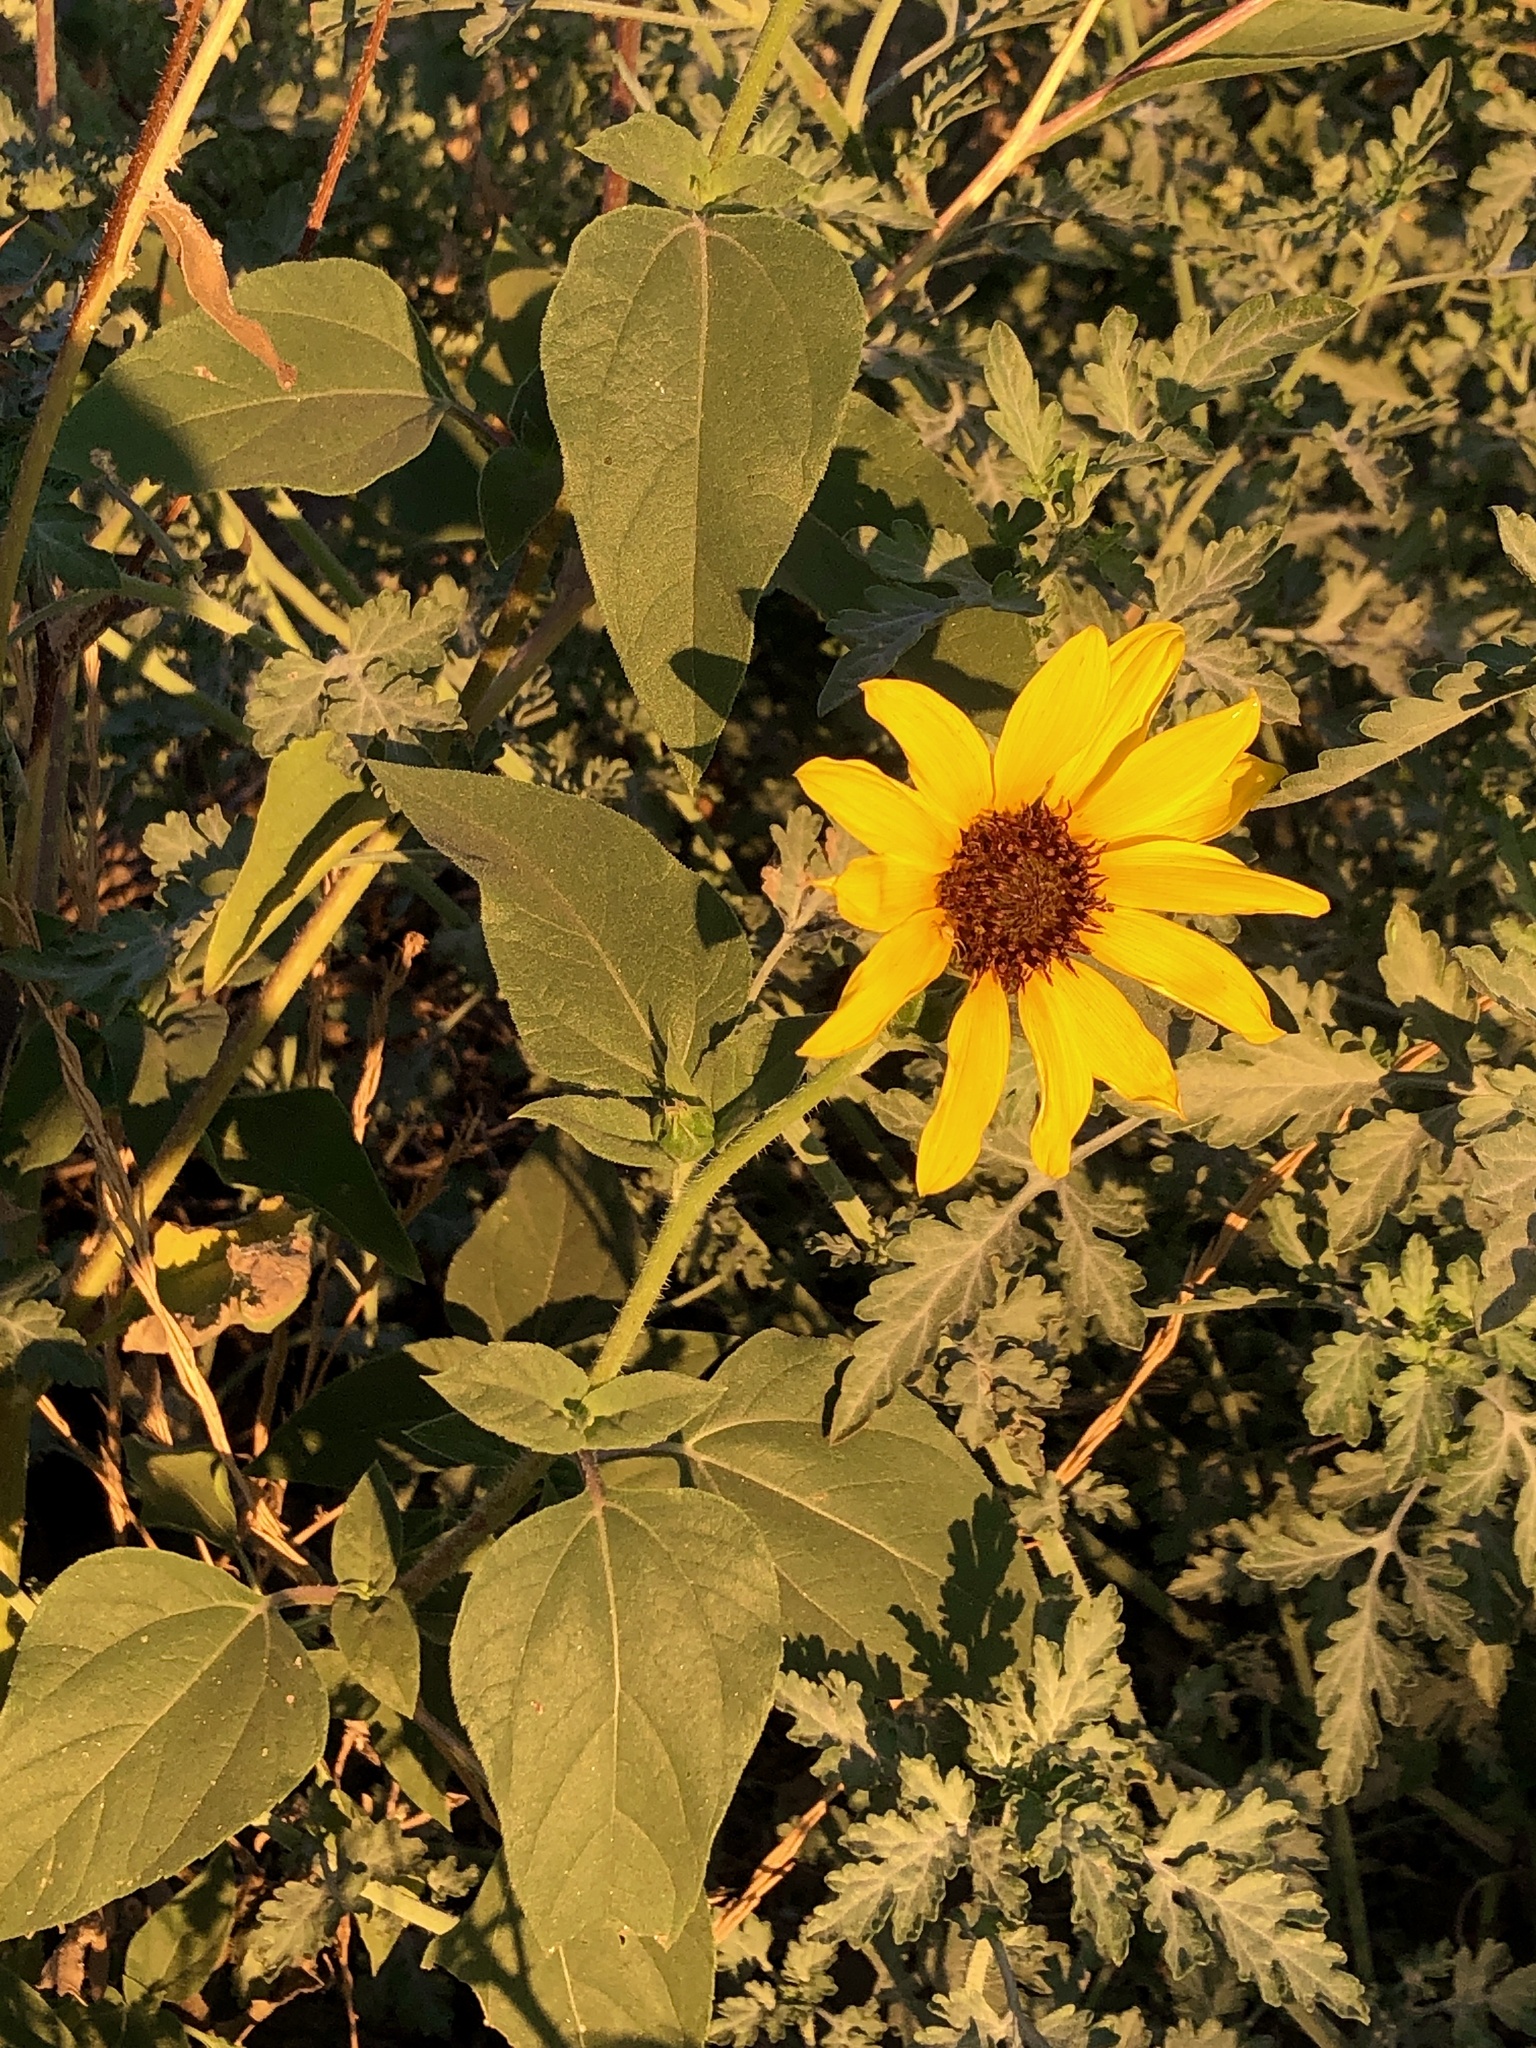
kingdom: Plantae
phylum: Tracheophyta
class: Magnoliopsida
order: Asterales
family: Asteraceae
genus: Helianthus
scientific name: Helianthus annuus
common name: Sunflower
